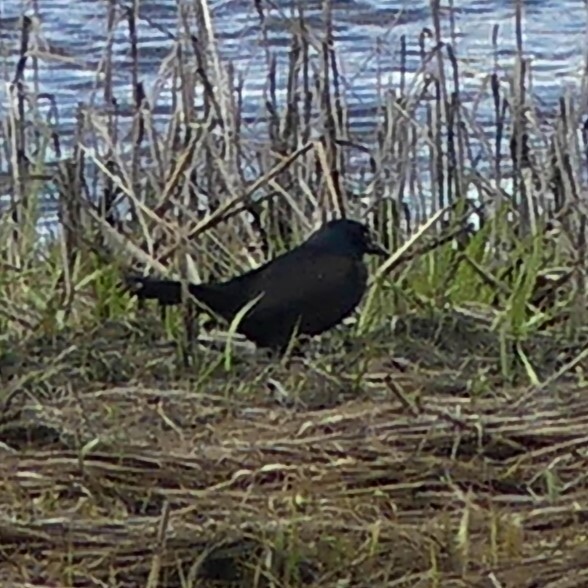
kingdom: Animalia
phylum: Chordata
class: Aves
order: Passeriformes
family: Icteridae
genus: Quiscalus
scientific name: Quiscalus quiscula
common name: Common grackle
